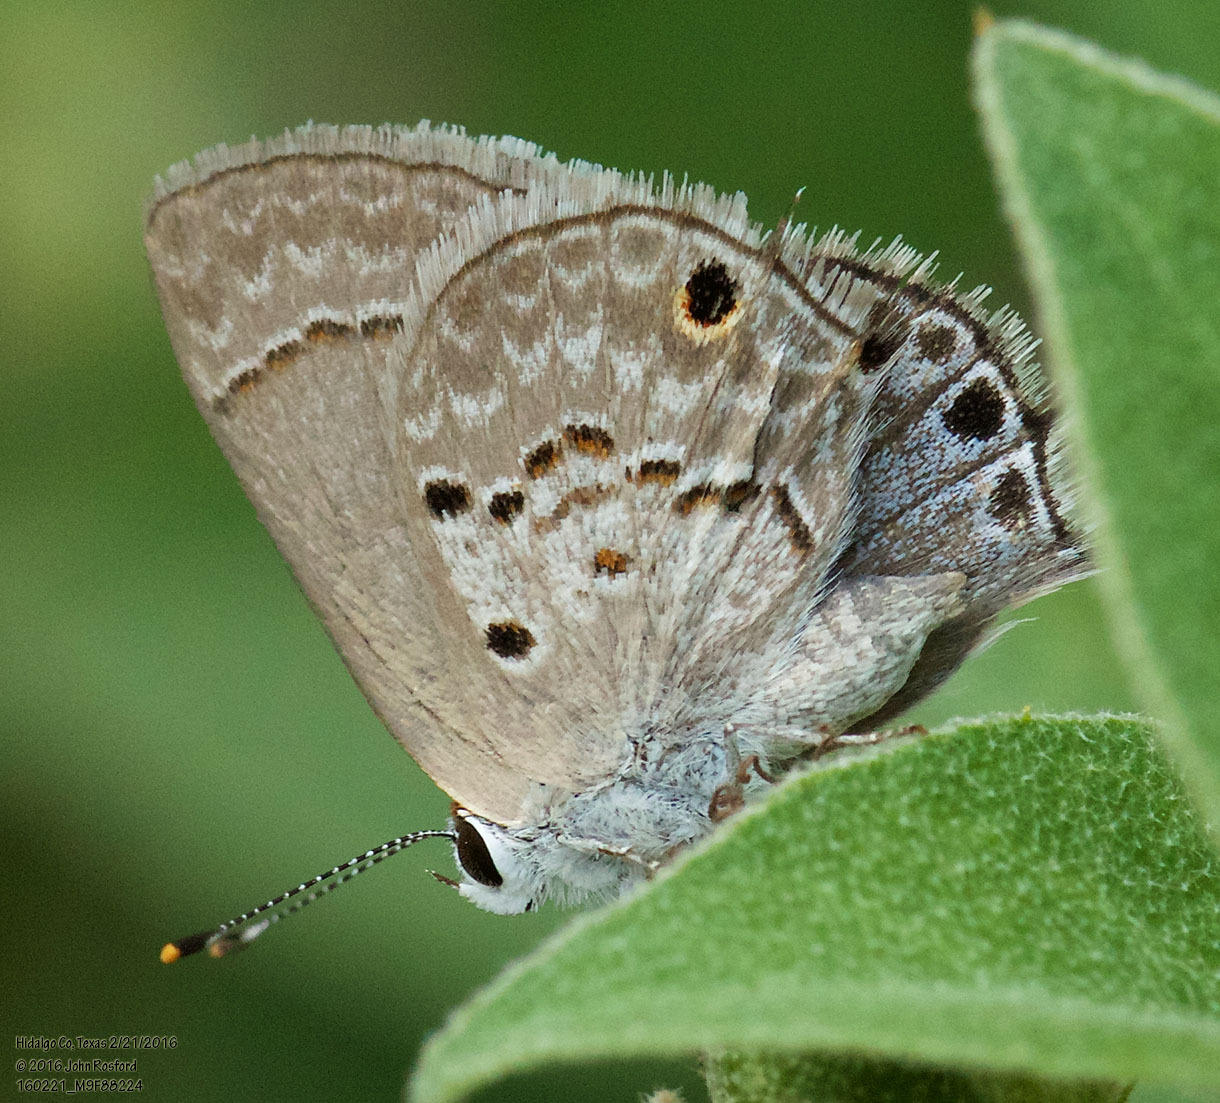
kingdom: Animalia
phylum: Arthropoda
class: Insecta
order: Lepidoptera
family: Lycaenidae
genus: Callicista
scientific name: Callicista columella
